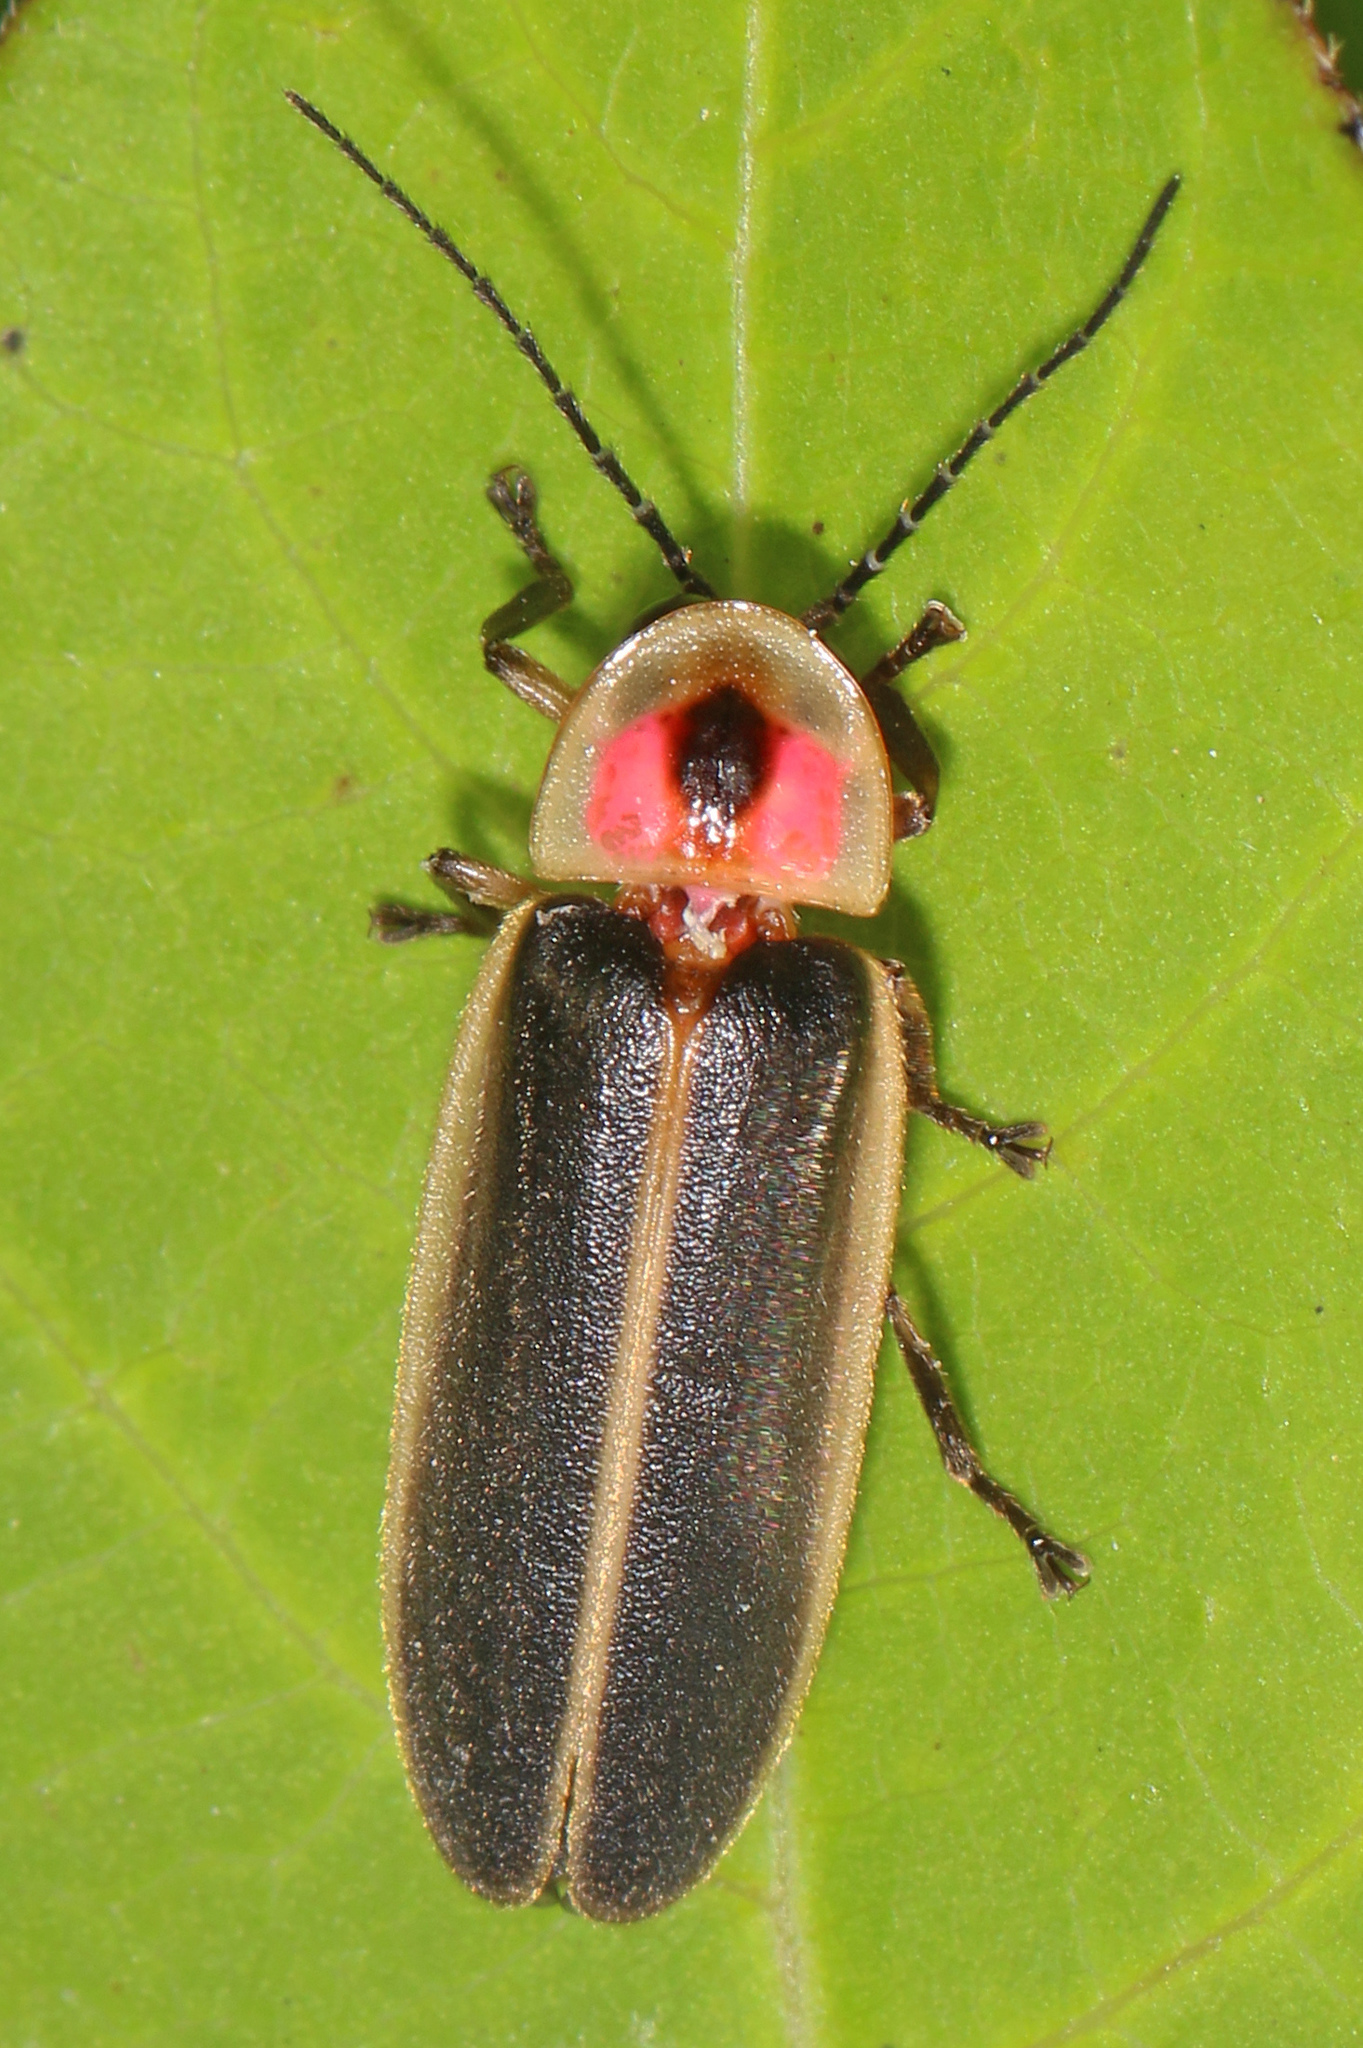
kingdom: Animalia
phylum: Arthropoda
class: Insecta
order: Coleoptera
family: Lampyridae
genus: Photinus
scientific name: Photinus pyralis
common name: Big dipper firefly
